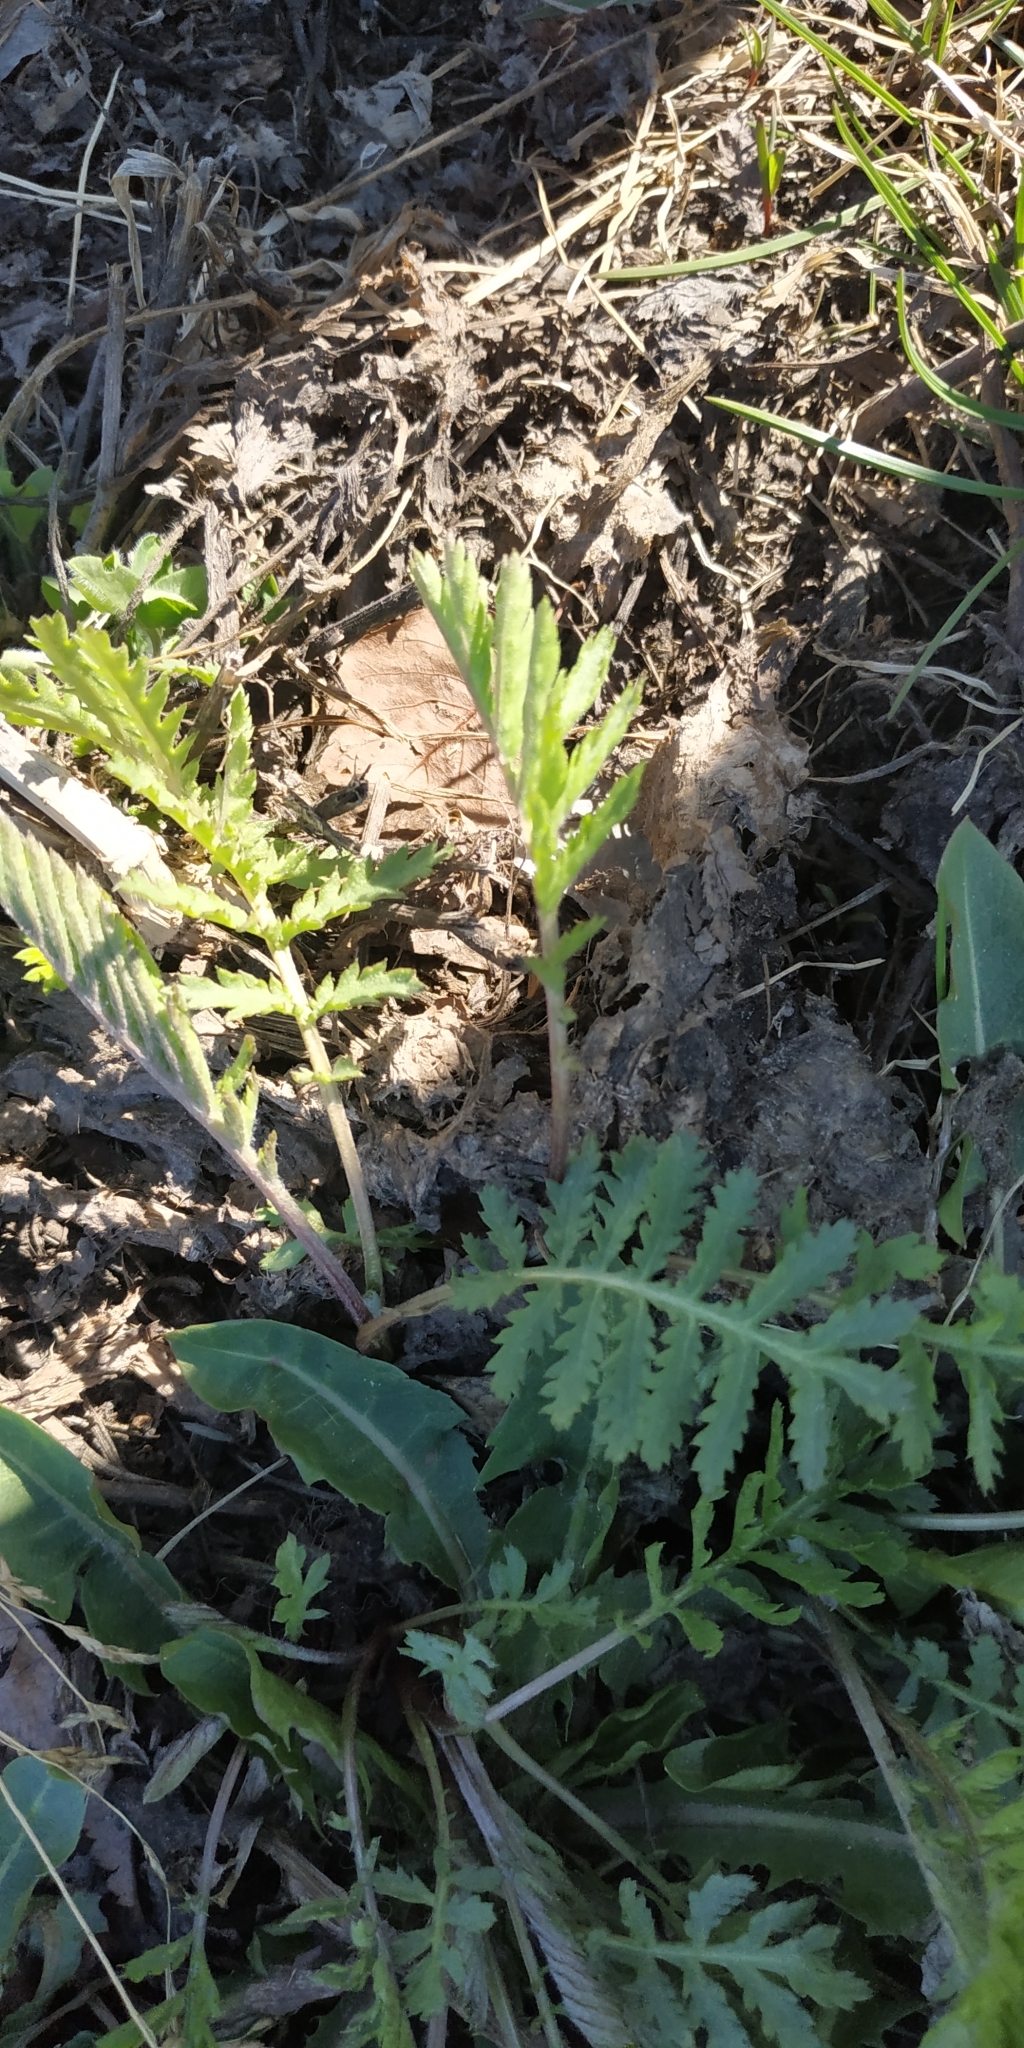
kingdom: Plantae
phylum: Tracheophyta
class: Magnoliopsida
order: Asterales
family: Asteraceae
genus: Tanacetum
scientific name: Tanacetum vulgare
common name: Common tansy
